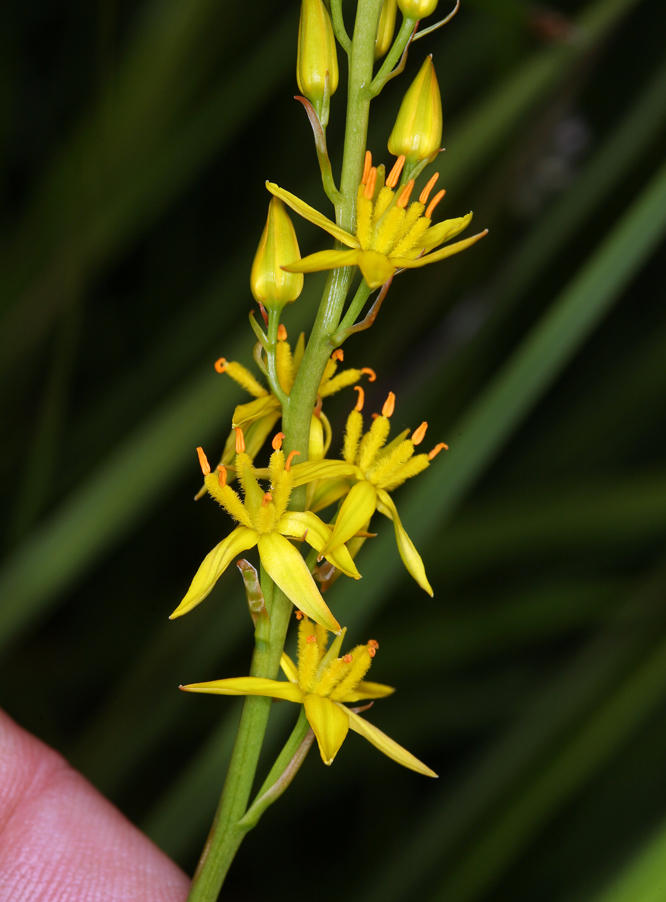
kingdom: Plantae
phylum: Tracheophyta
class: Liliopsida
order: Dioscoreales
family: Nartheciaceae
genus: Narthecium
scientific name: Narthecium californicum
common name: California bog-asphodel
